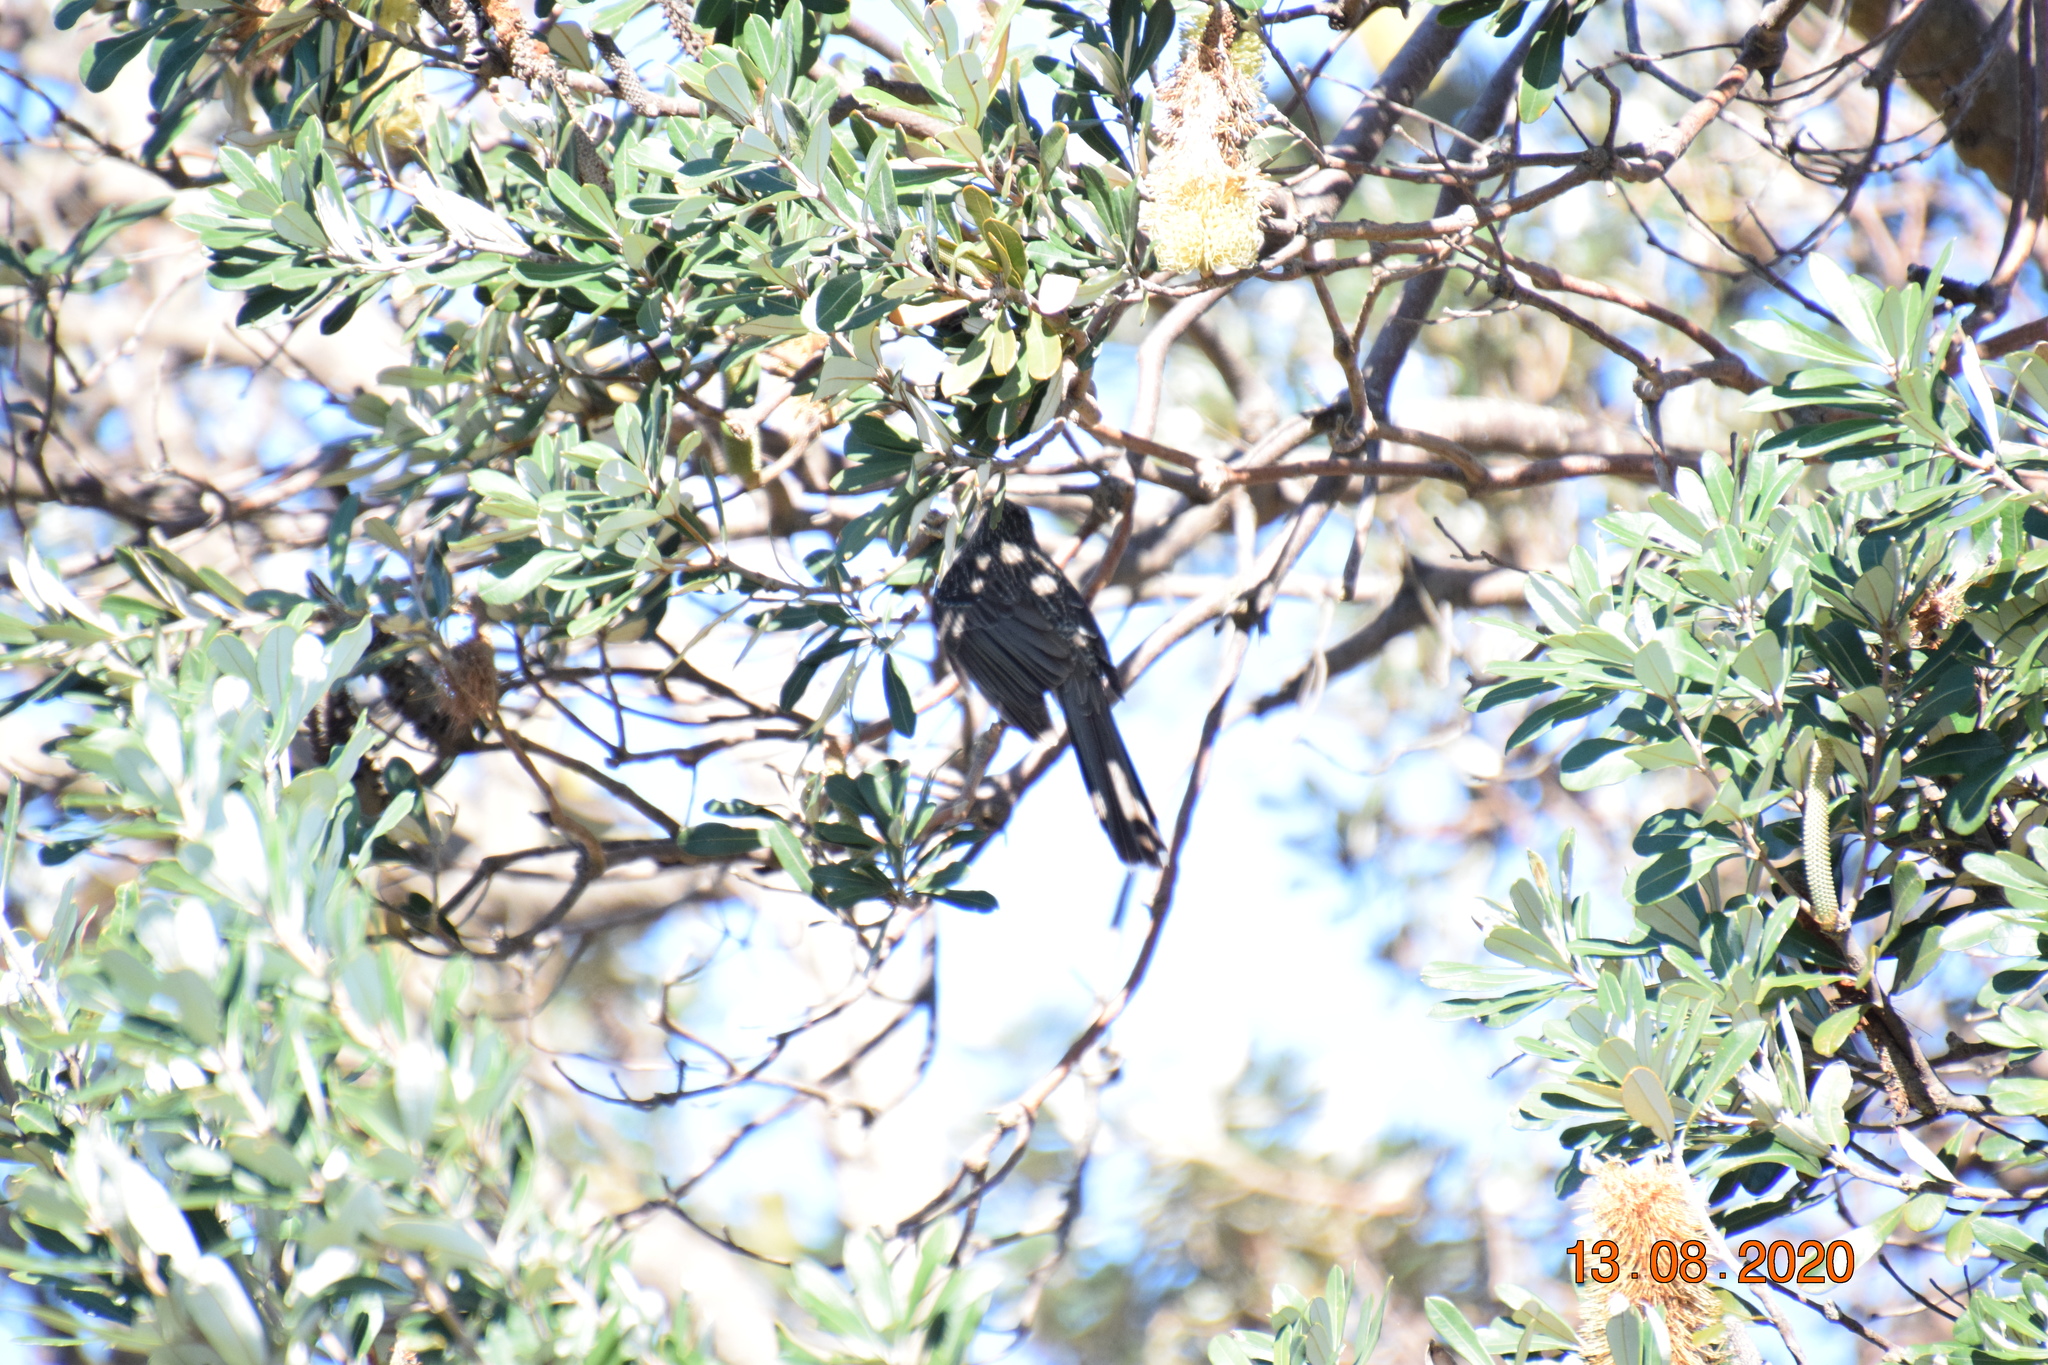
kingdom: Animalia
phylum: Chordata
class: Aves
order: Passeriformes
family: Meliphagidae
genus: Anthochaera
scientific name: Anthochaera chrysoptera
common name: Little wattlebird
